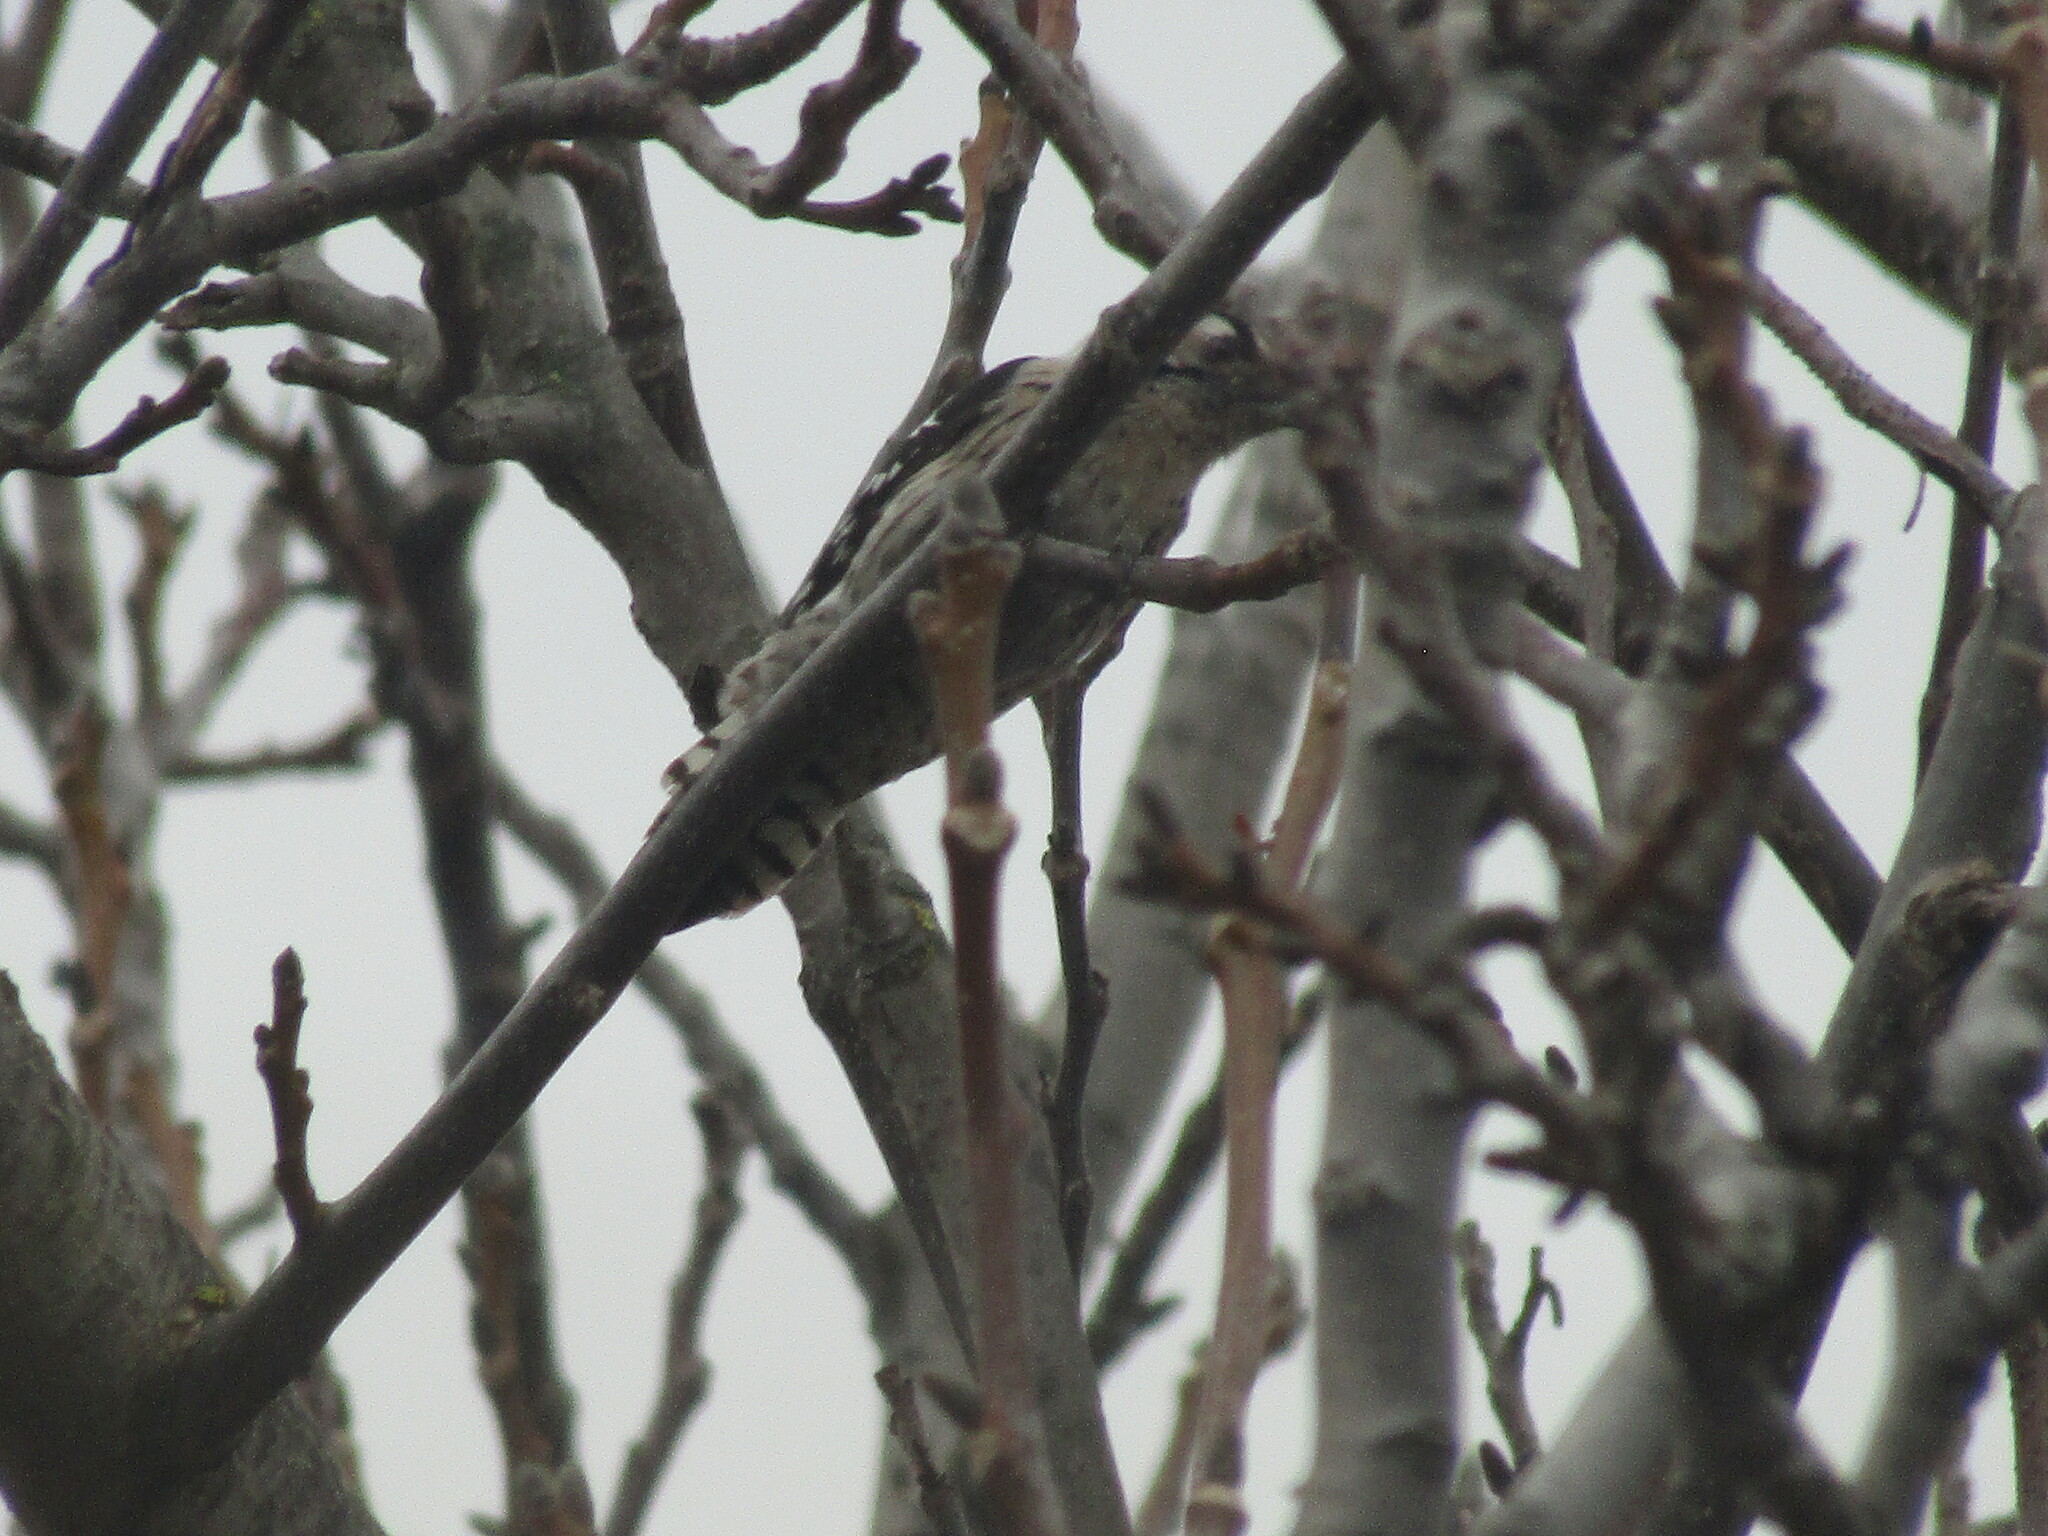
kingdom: Animalia
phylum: Chordata
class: Aves
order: Piciformes
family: Picidae
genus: Dryobates
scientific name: Dryobates minor
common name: Lesser spotted woodpecker
